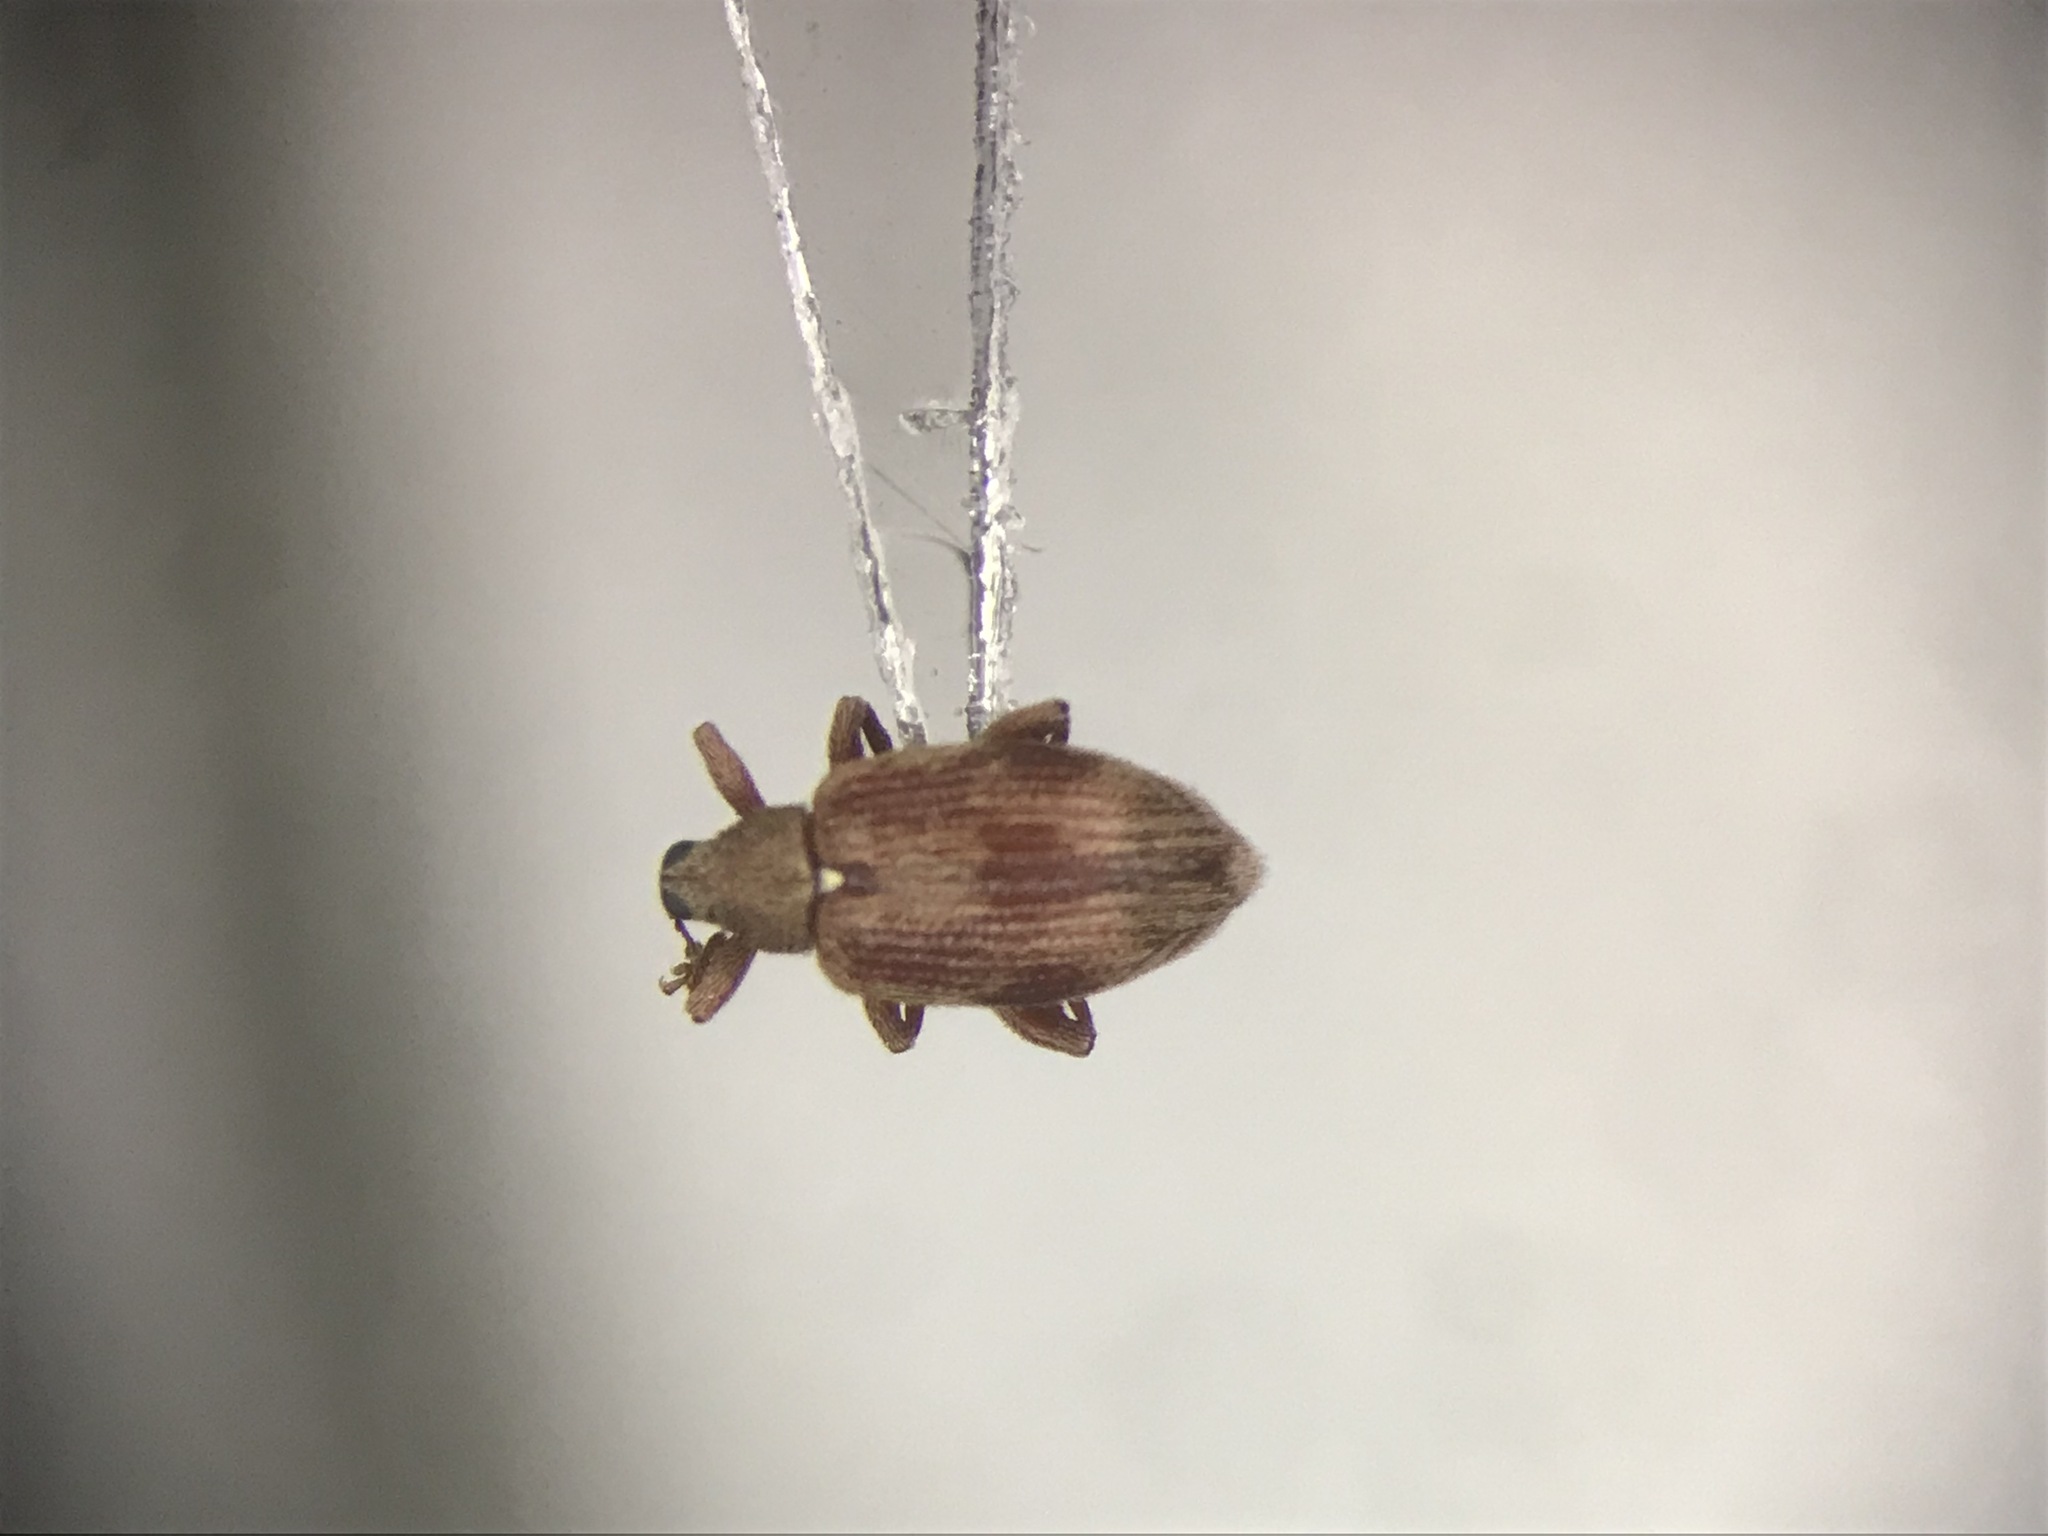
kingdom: Animalia
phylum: Arthropoda
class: Insecta
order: Coleoptera
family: Curculionidae
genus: Orchestes
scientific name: Orchestes testaceus
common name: Jumping weevil
